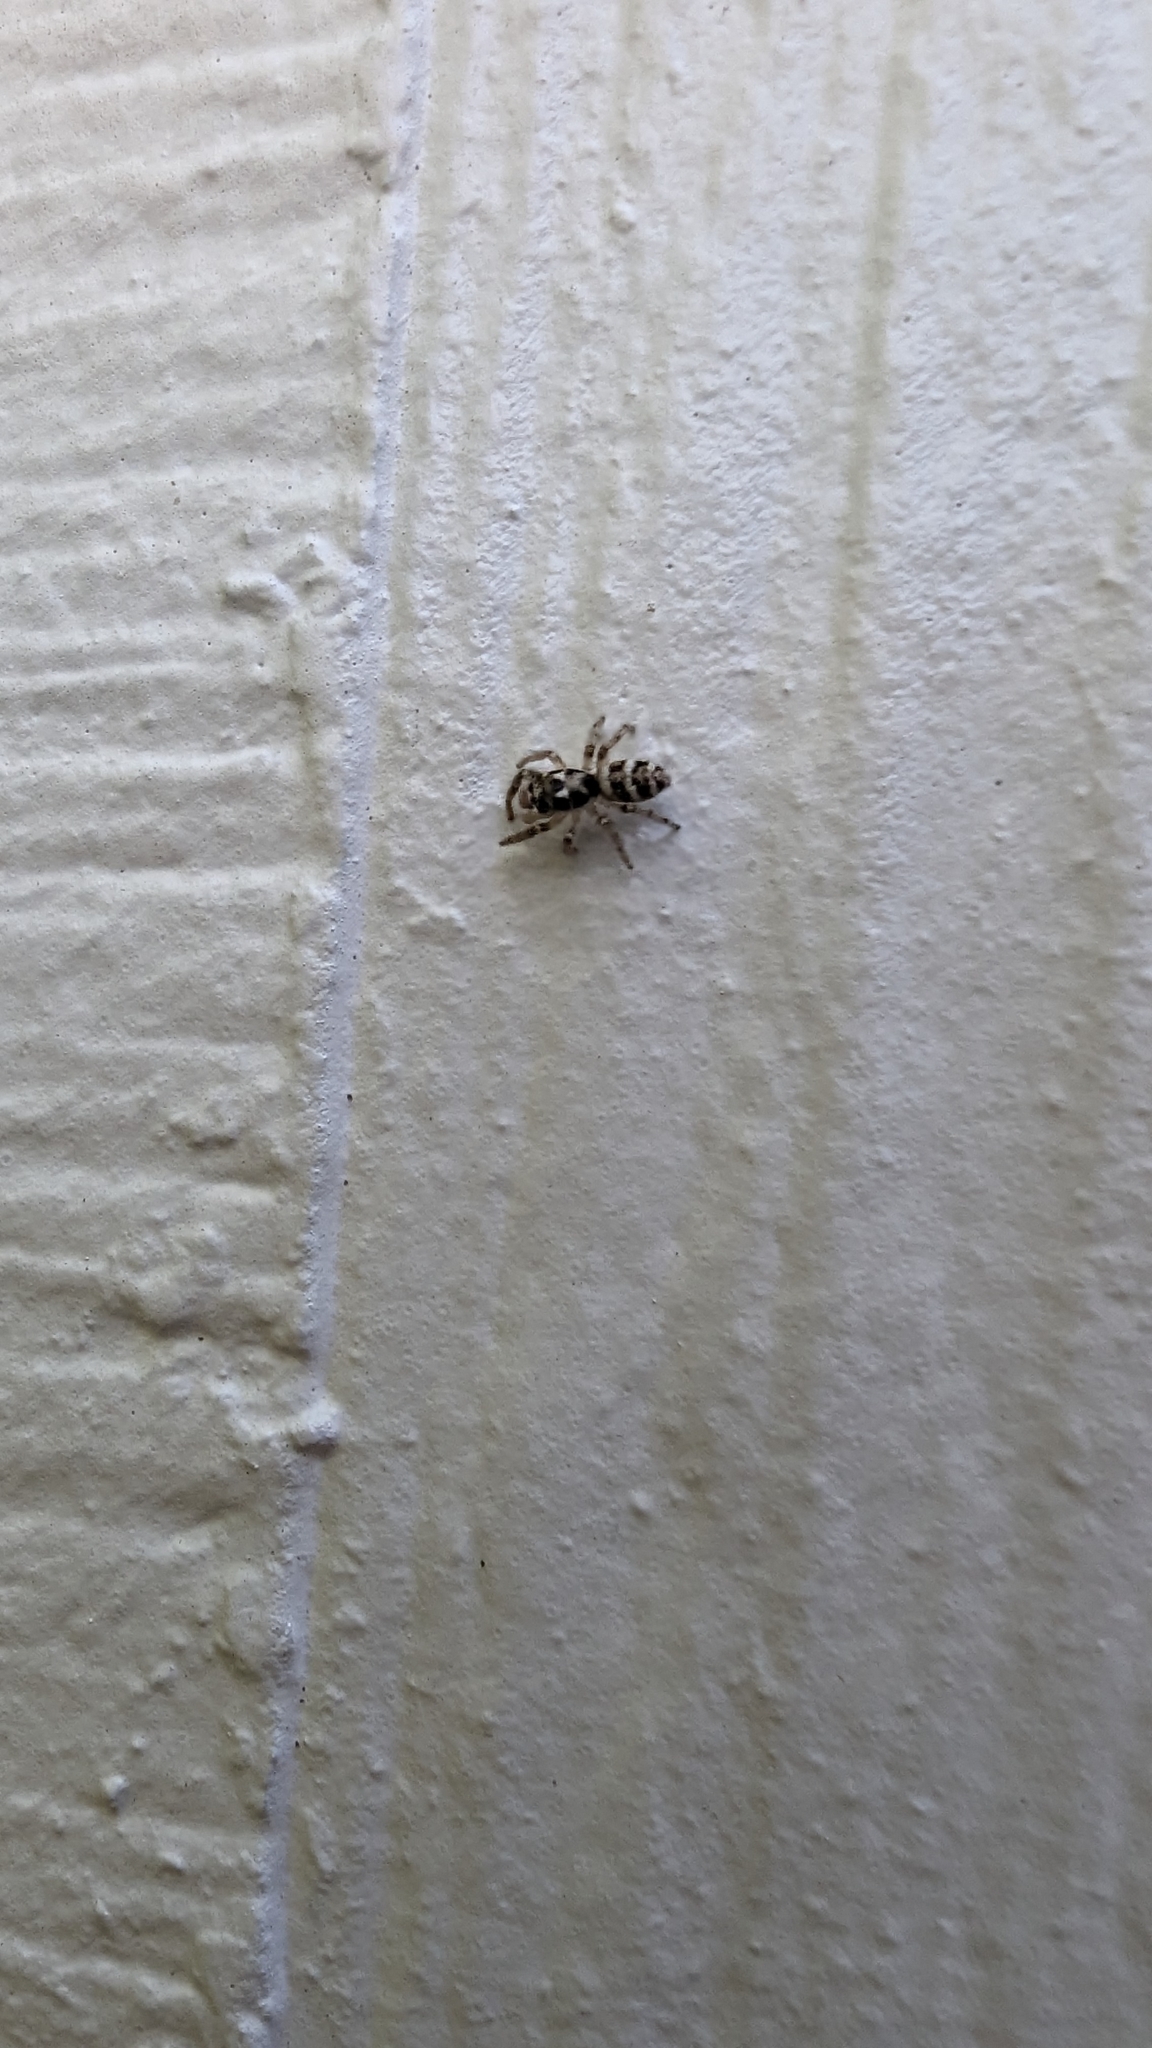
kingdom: Animalia
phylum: Arthropoda
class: Arachnida
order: Araneae
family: Salticidae
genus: Salticus
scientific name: Salticus scenicus
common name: Zebra jumper
